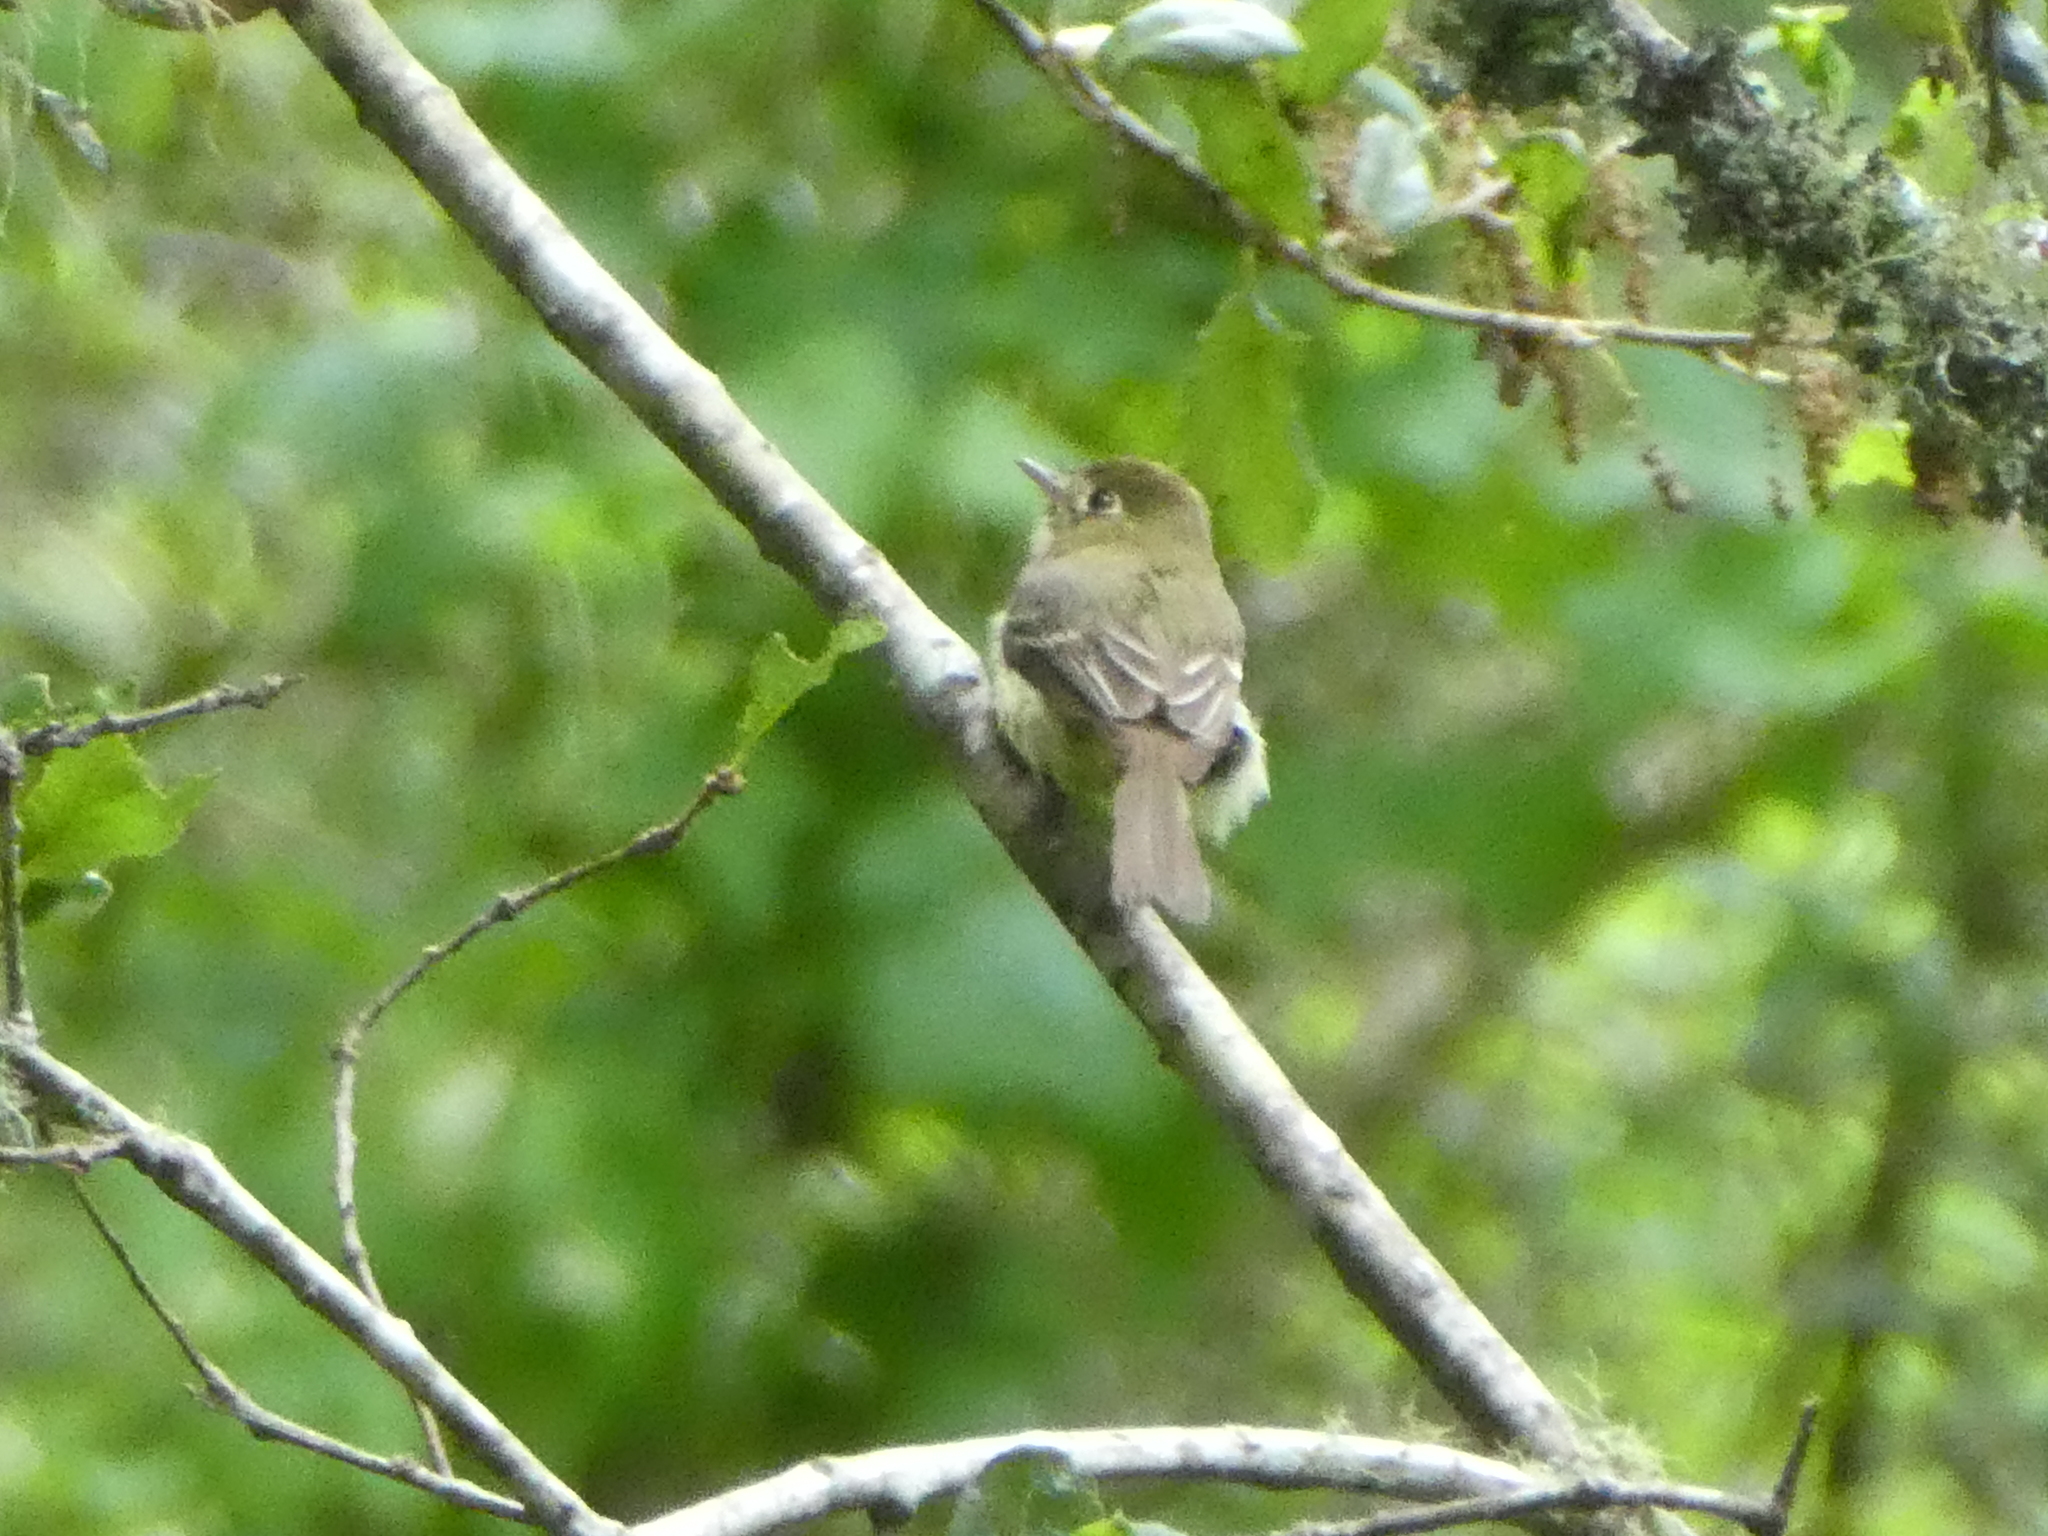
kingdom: Animalia
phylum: Chordata
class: Aves
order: Passeriformes
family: Tyrannidae
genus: Empidonax
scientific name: Empidonax difficilis
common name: Pacific-slope flycatcher
